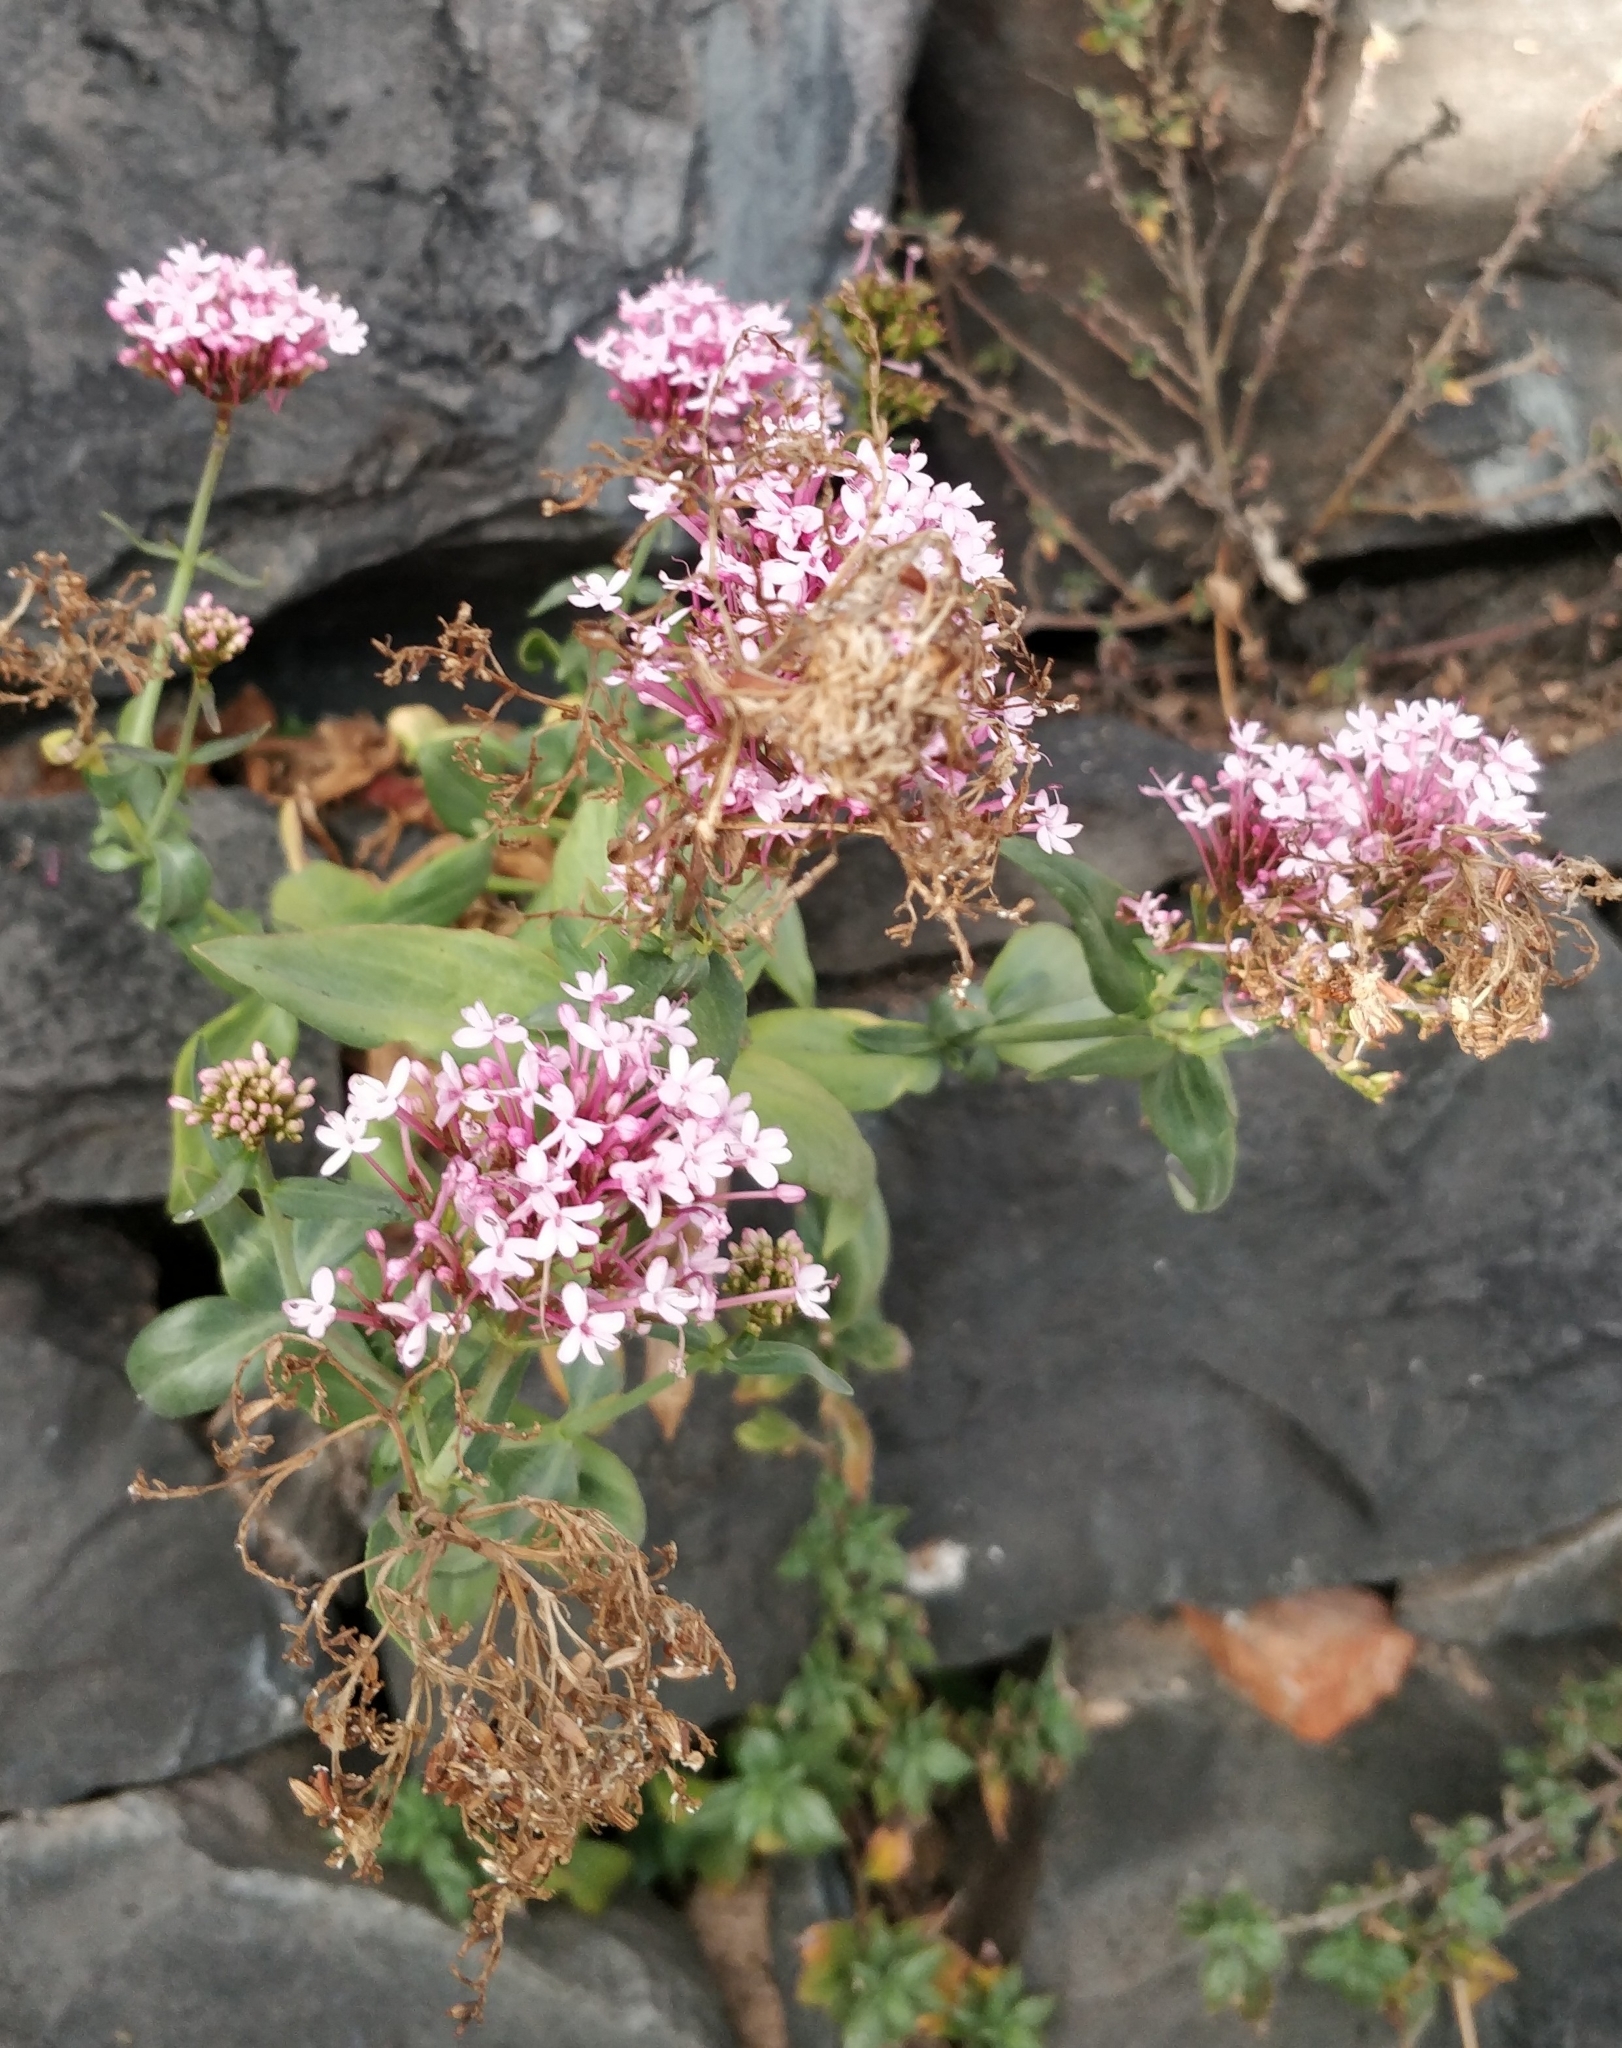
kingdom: Plantae
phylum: Tracheophyta
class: Magnoliopsida
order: Dipsacales
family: Caprifoliaceae
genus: Centranthus
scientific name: Centranthus ruber
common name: Red valerian
